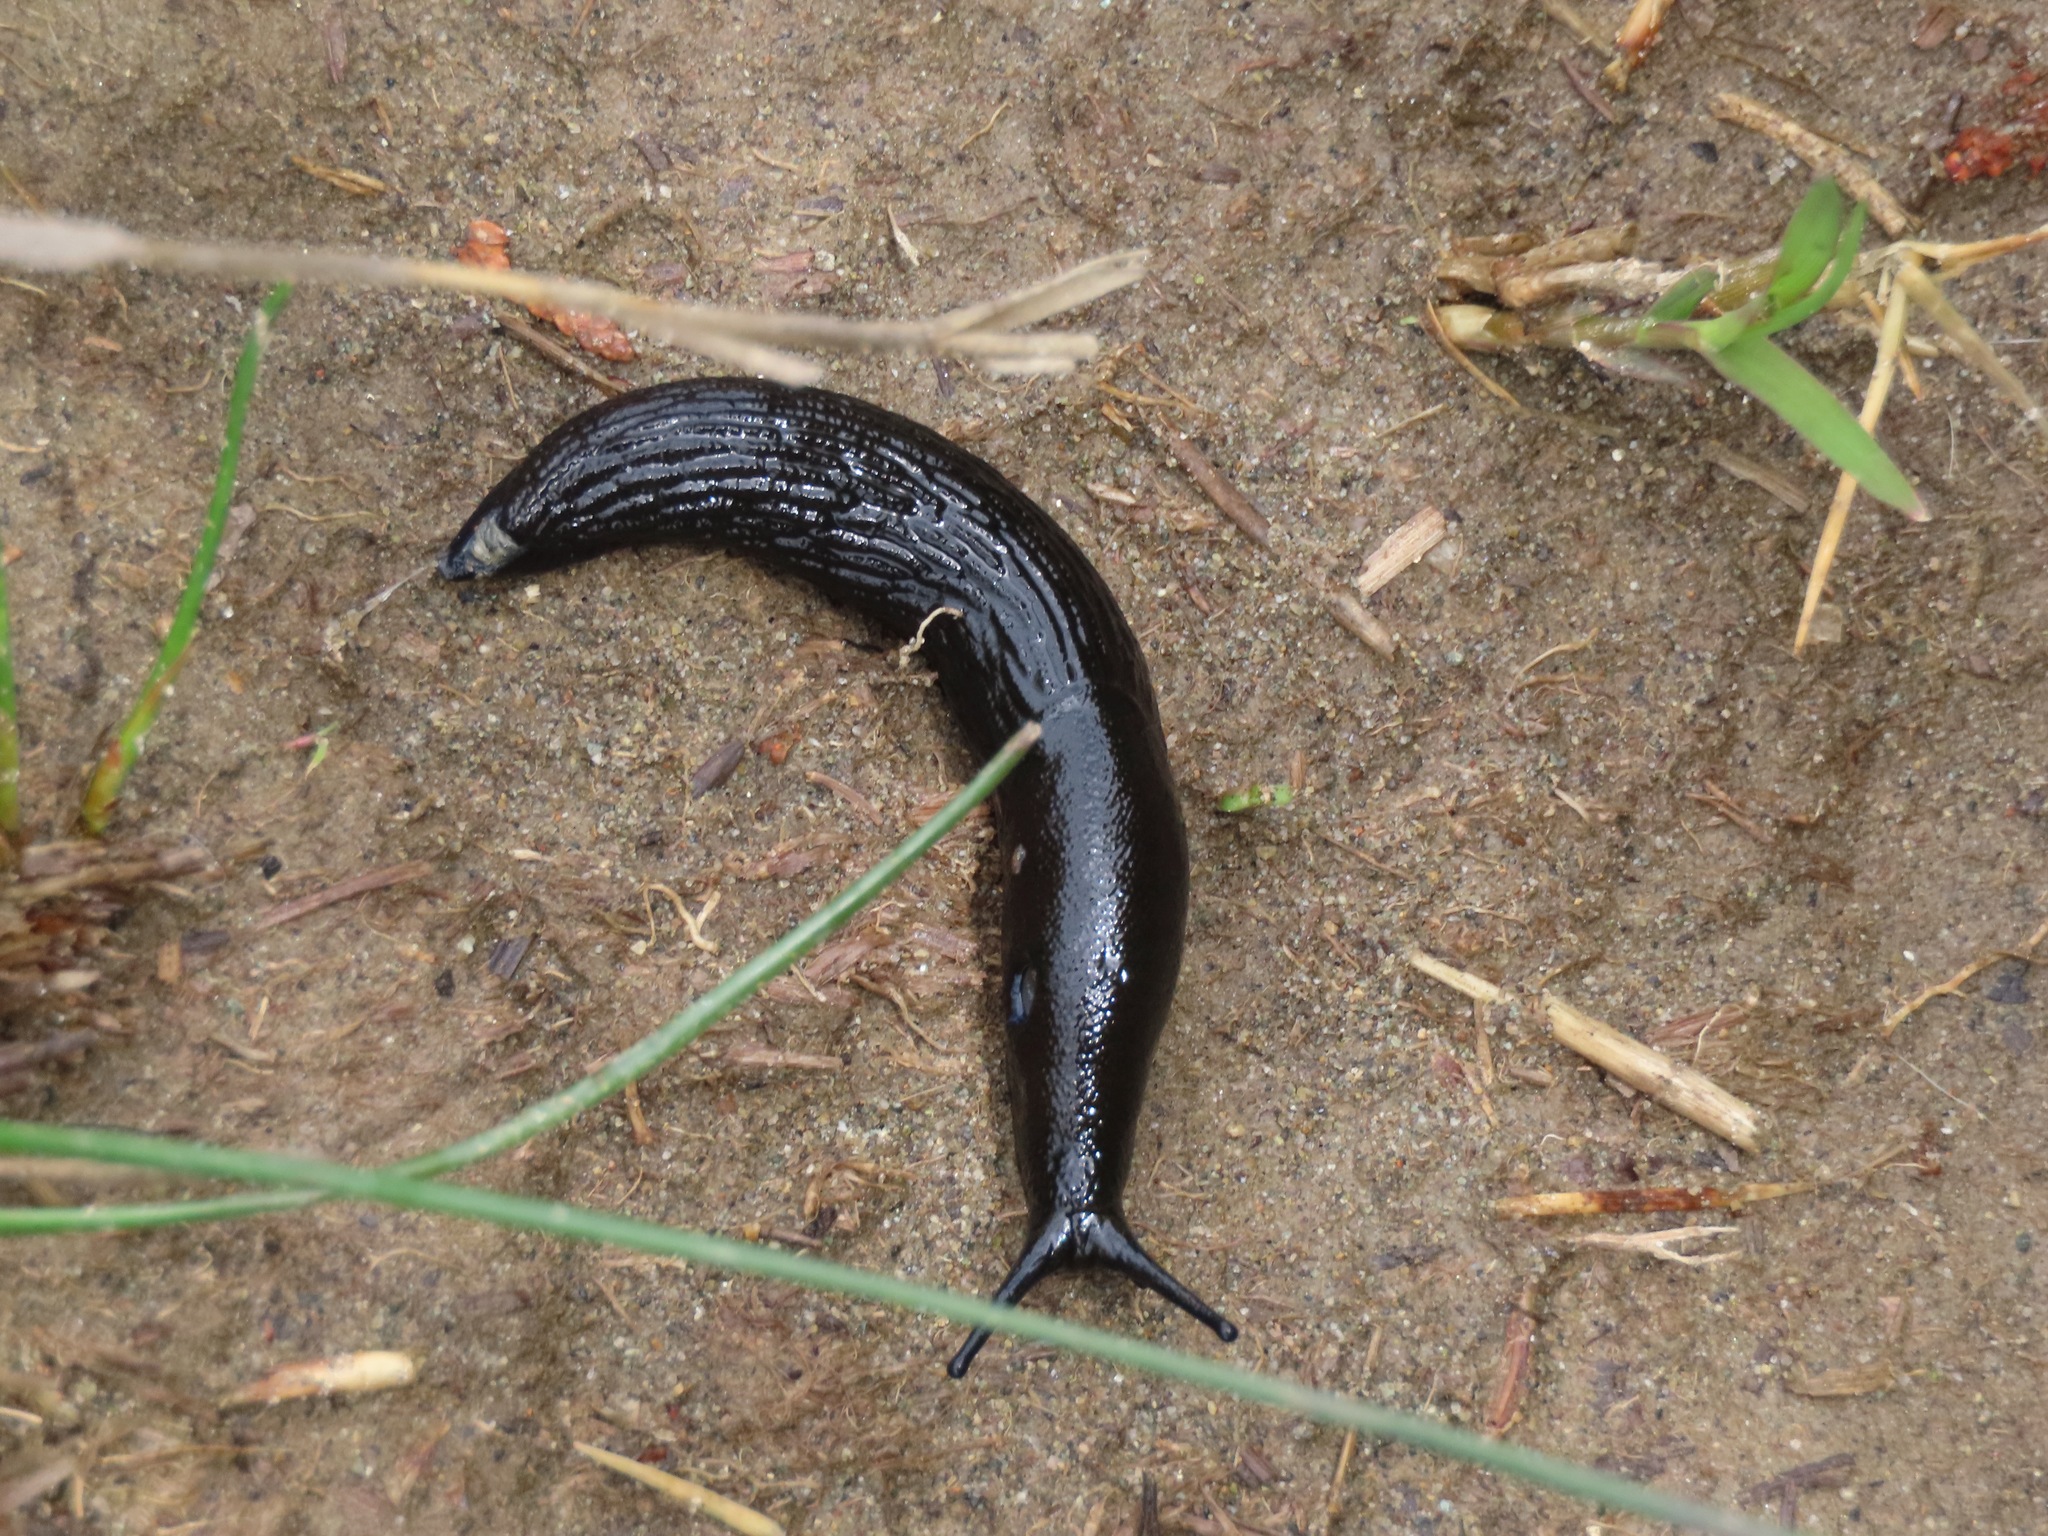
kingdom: Animalia
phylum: Mollusca
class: Gastropoda
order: Stylommatophora
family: Arionidae
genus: Arion
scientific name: Arion
